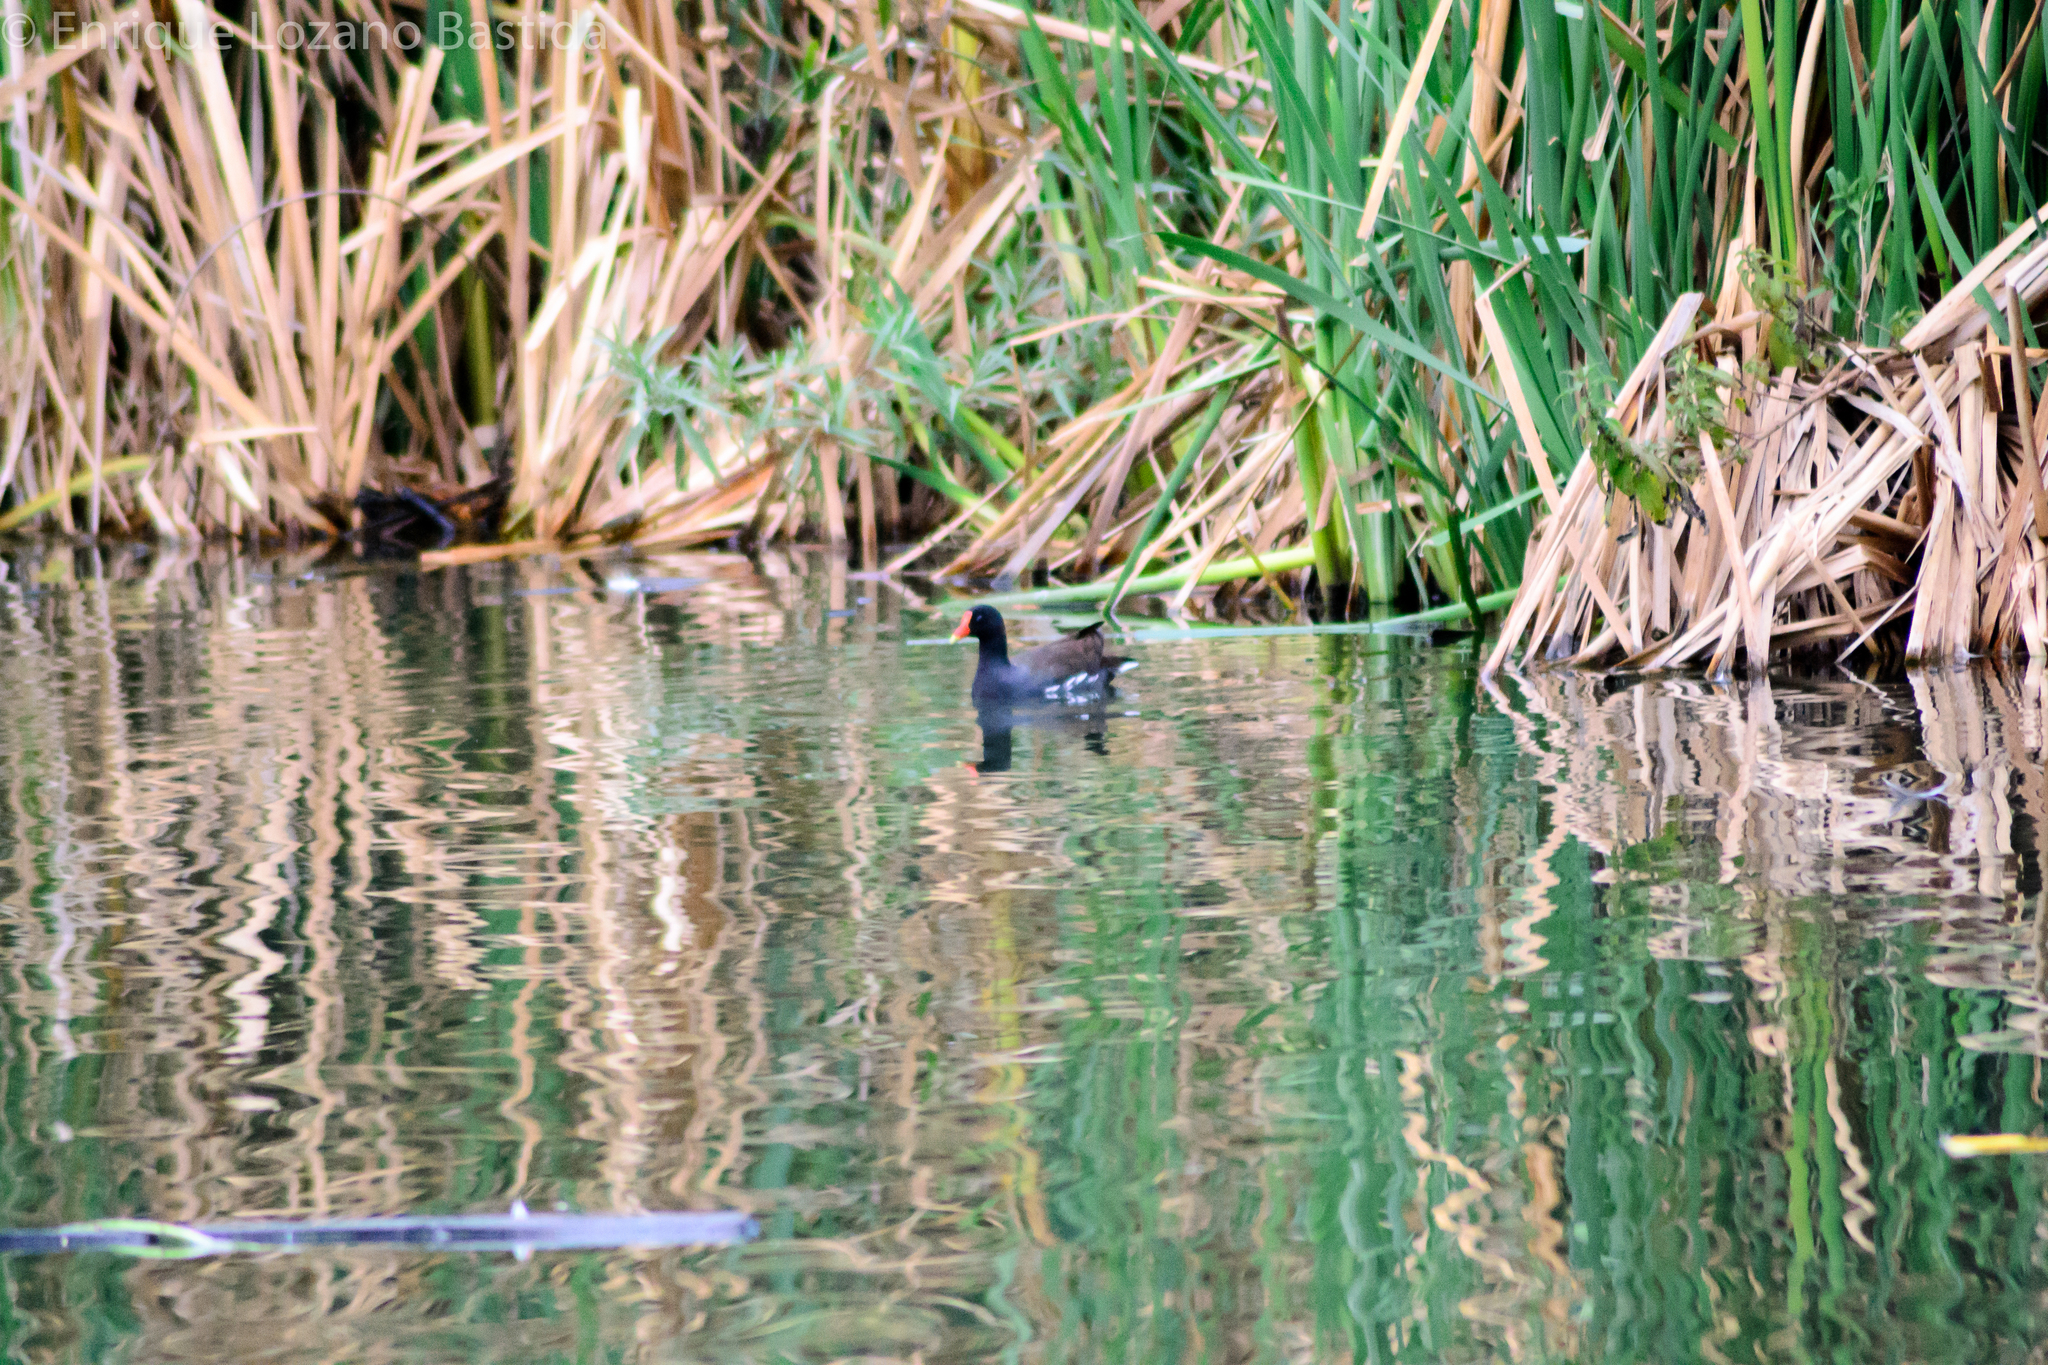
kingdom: Animalia
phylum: Chordata
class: Aves
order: Gruiformes
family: Rallidae
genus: Gallinula
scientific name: Gallinula chloropus
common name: Common moorhen
